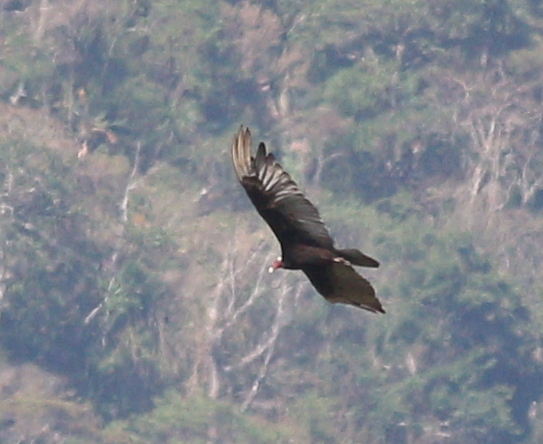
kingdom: Animalia
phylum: Chordata
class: Aves
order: Accipitriformes
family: Cathartidae
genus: Cathartes
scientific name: Cathartes aura
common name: Turkey vulture
